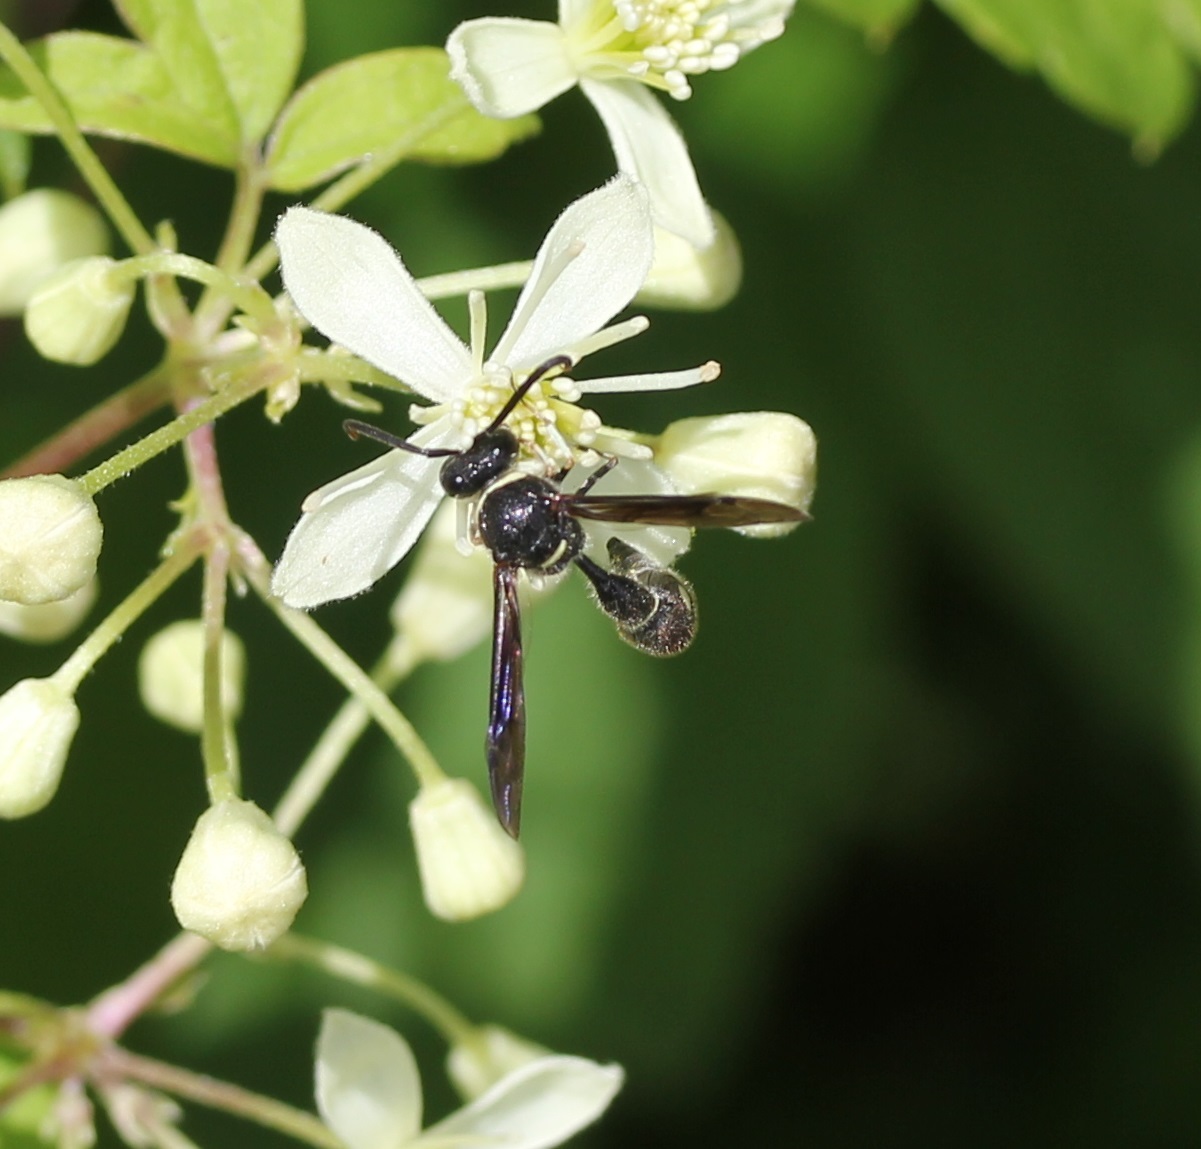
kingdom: Animalia
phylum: Arthropoda
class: Insecta
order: Hymenoptera
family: Vespidae
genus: Eumenes
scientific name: Eumenes fraternus
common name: Fraternal potter wasp
